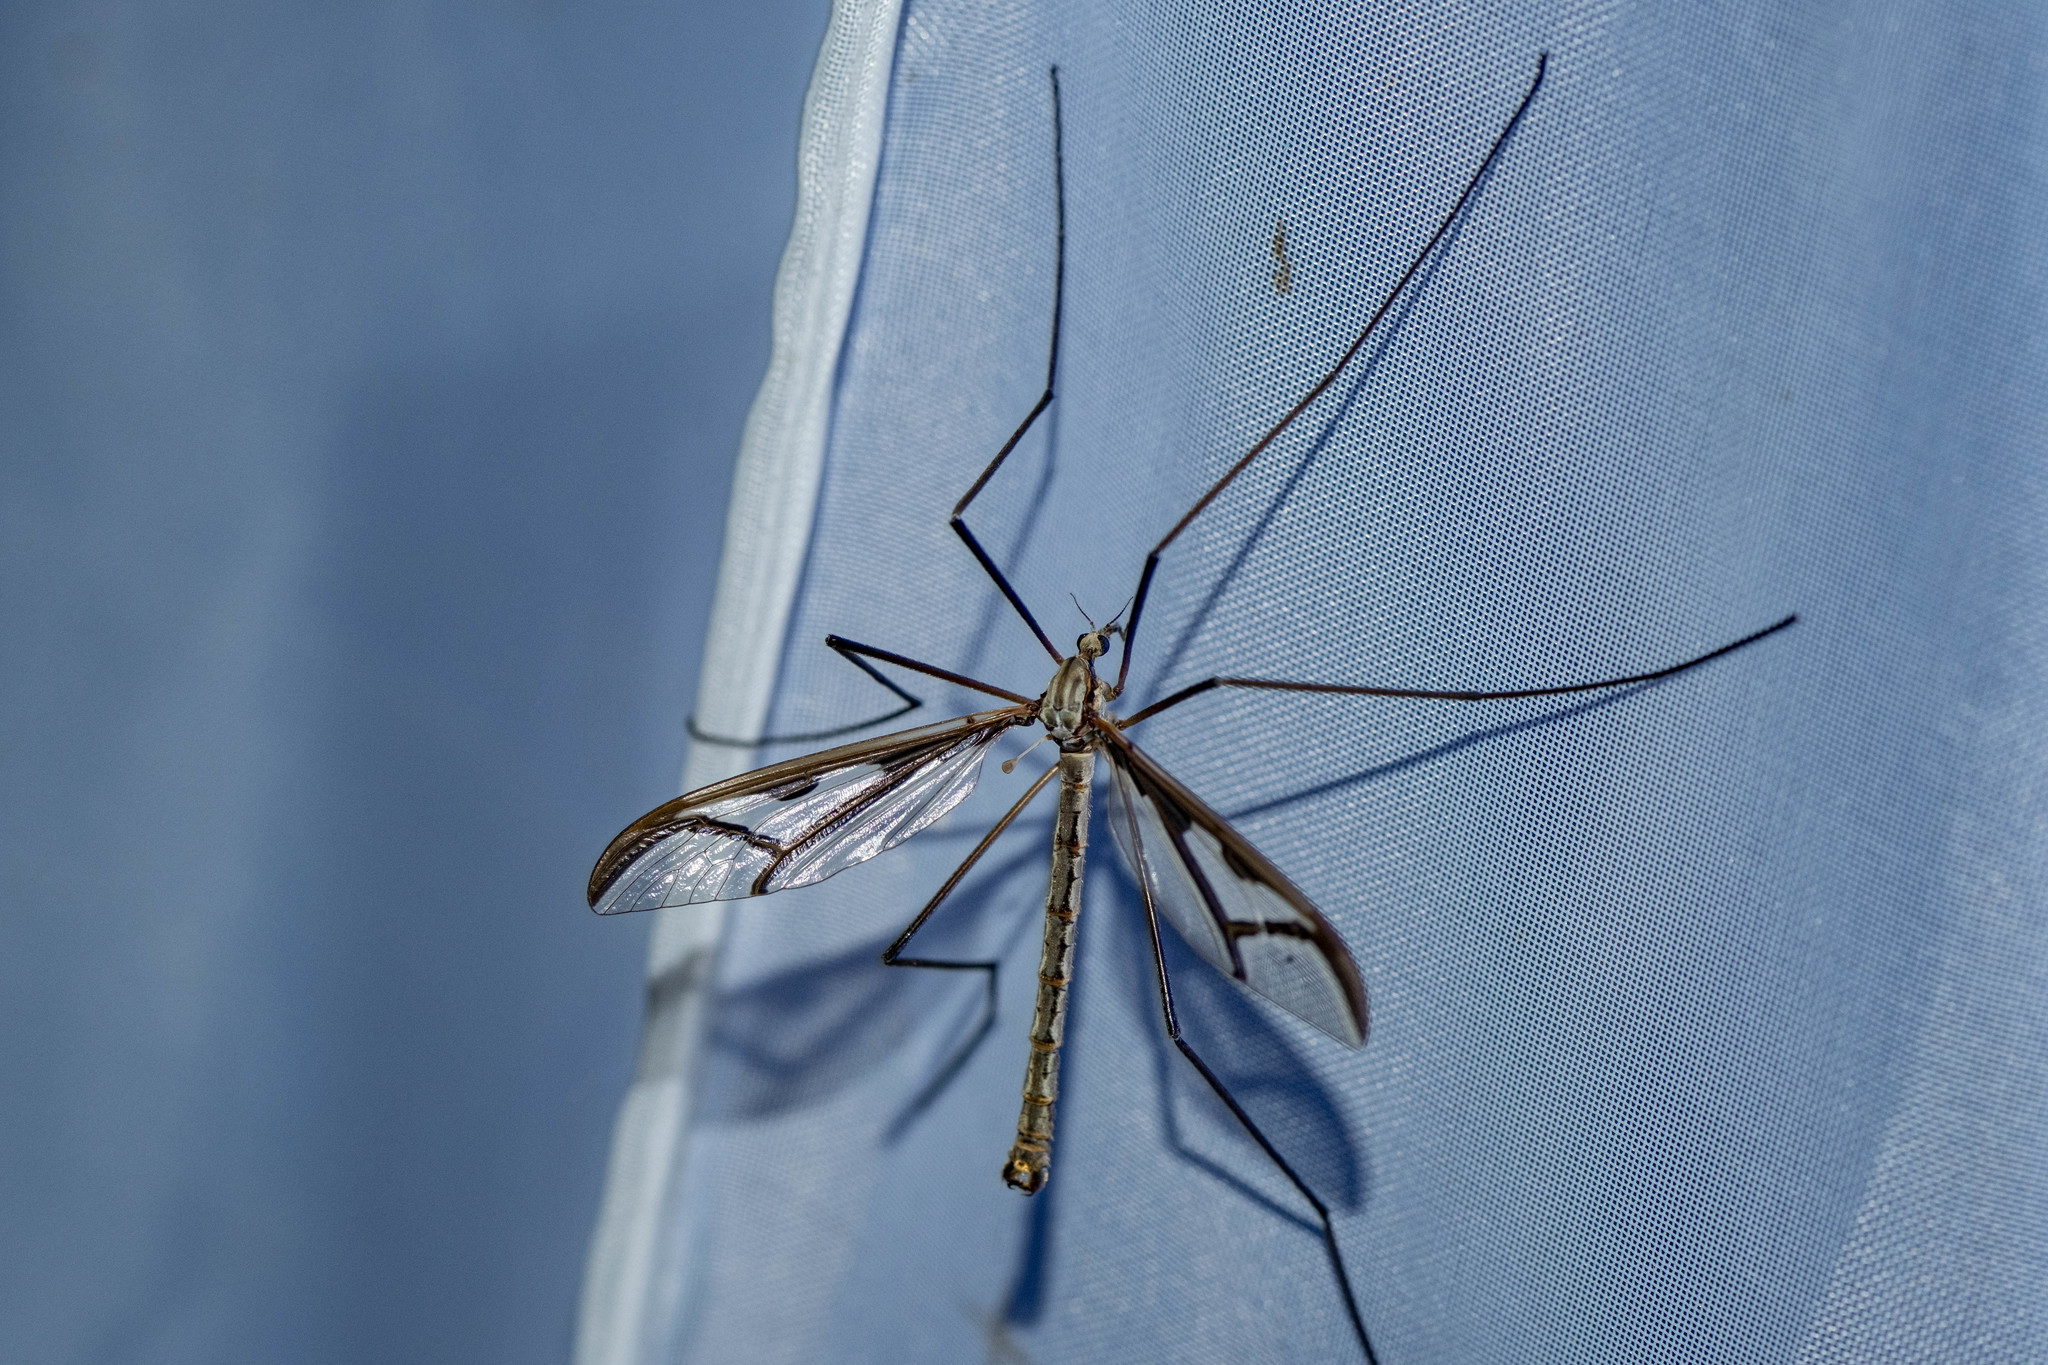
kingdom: Animalia
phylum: Arthropoda
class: Insecta
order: Diptera
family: Pediciidae
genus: Pedicia
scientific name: Pedicia rivosa
